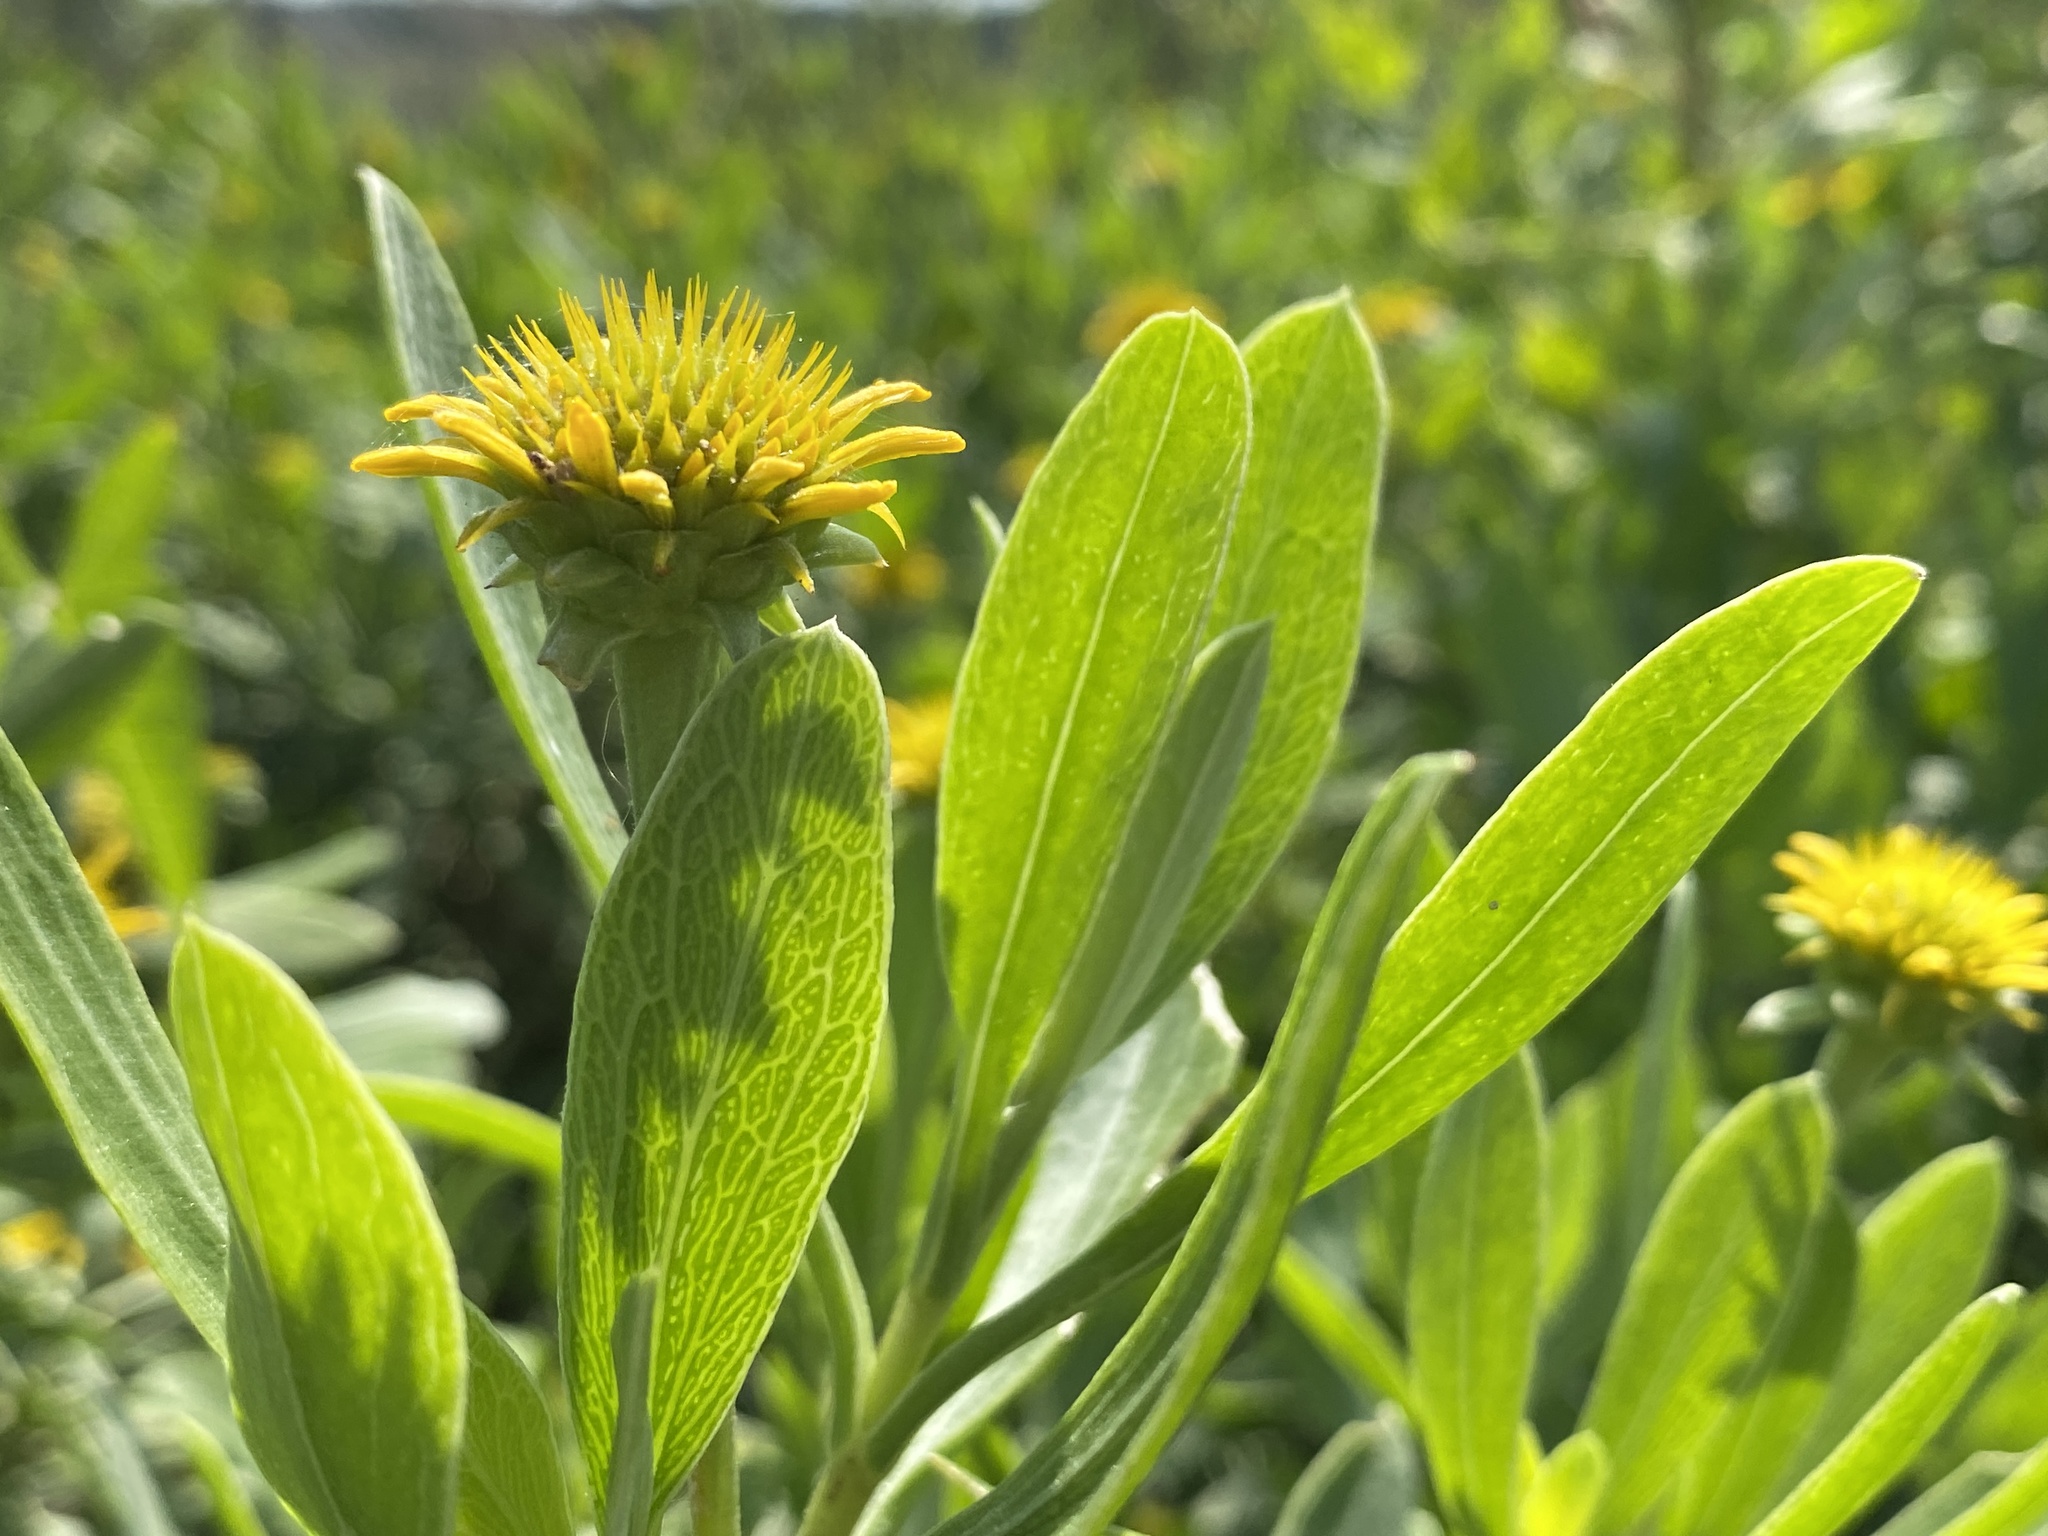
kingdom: Plantae
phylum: Tracheophyta
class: Magnoliopsida
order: Asterales
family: Asteraceae
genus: Borrichia
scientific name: Borrichia frutescens
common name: Sea oxeye
